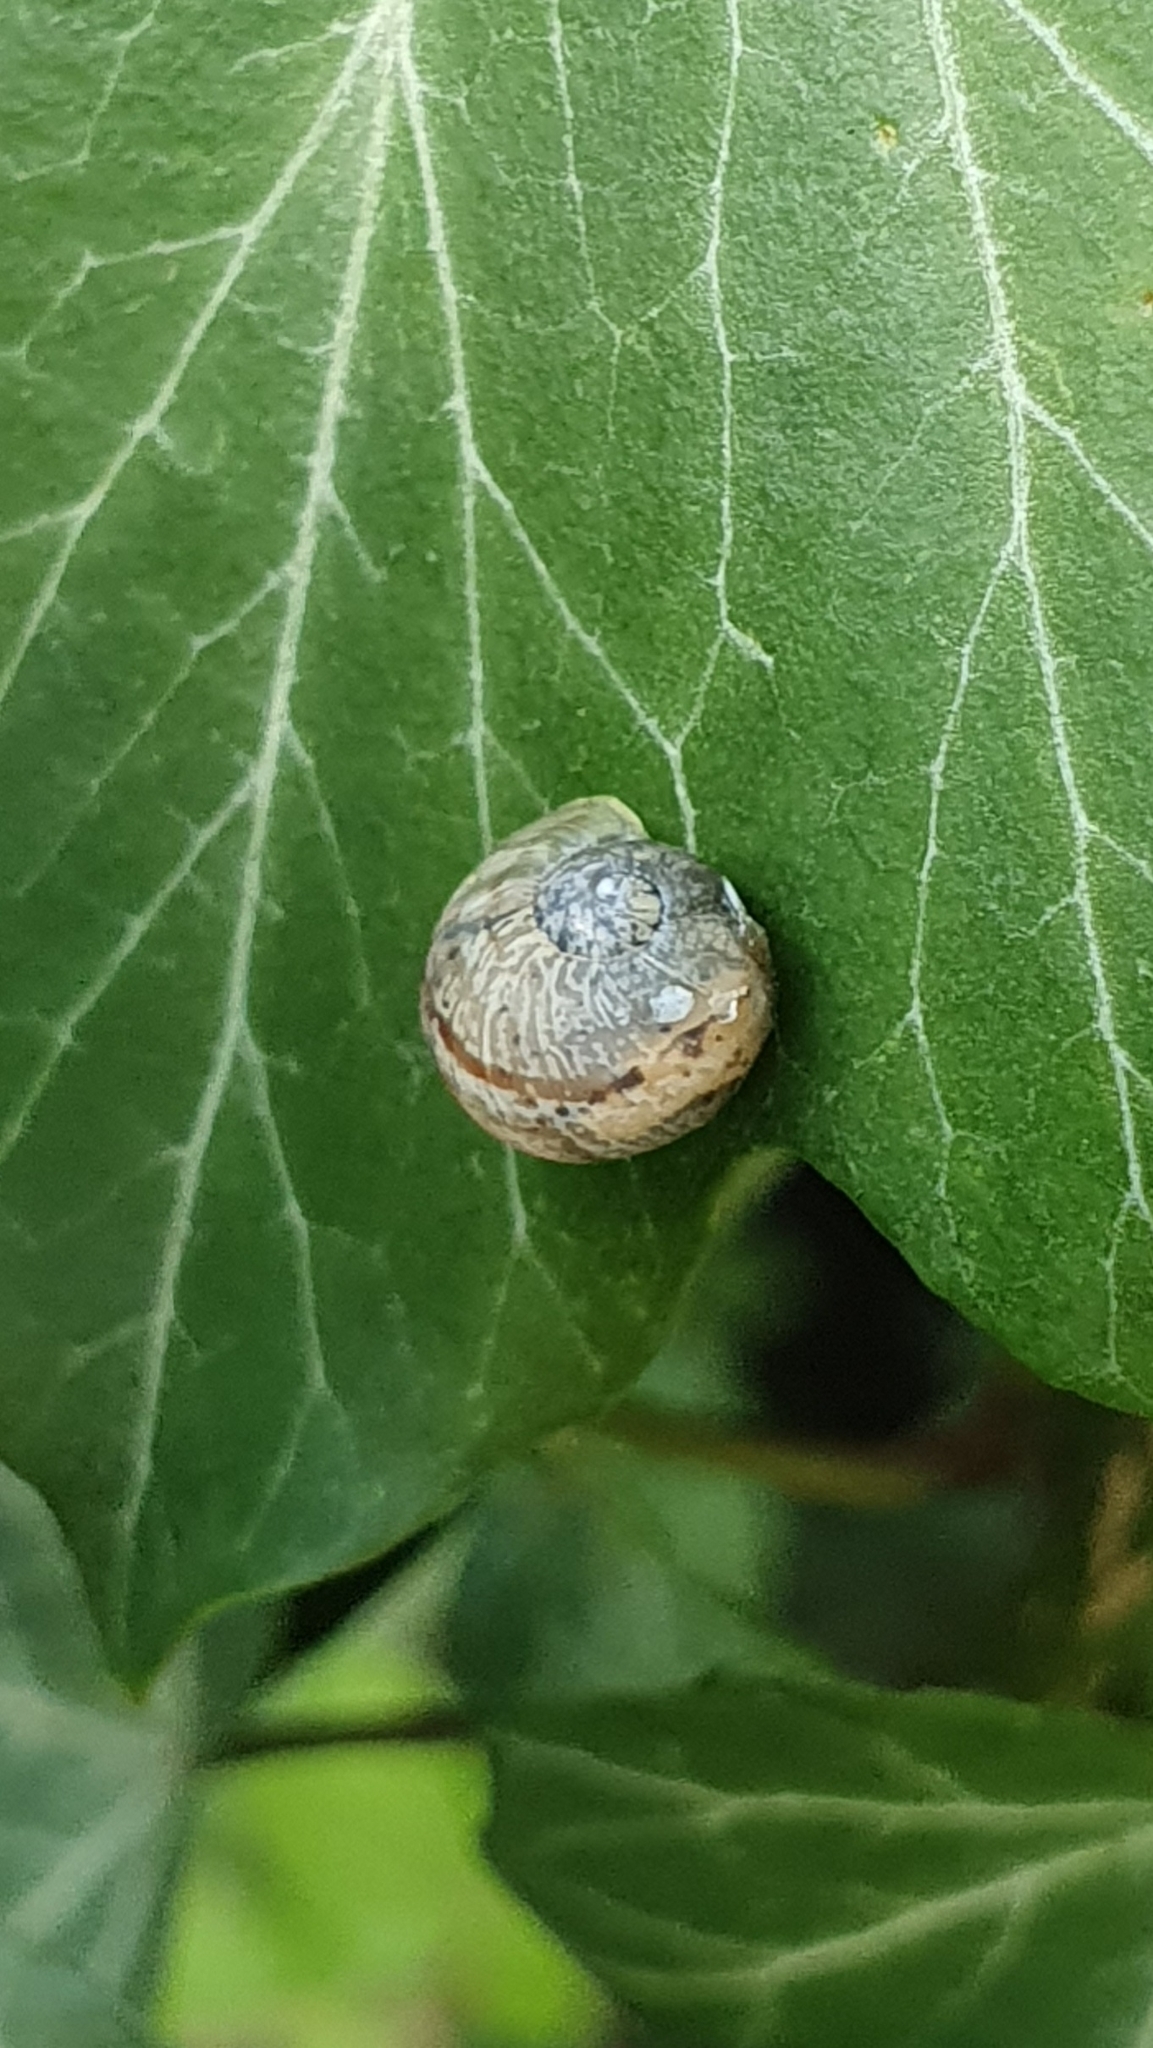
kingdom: Animalia
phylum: Mollusca
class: Gastropoda
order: Stylommatophora
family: Helicidae
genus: Cornu
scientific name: Cornu aspersum
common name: Brown garden snail
